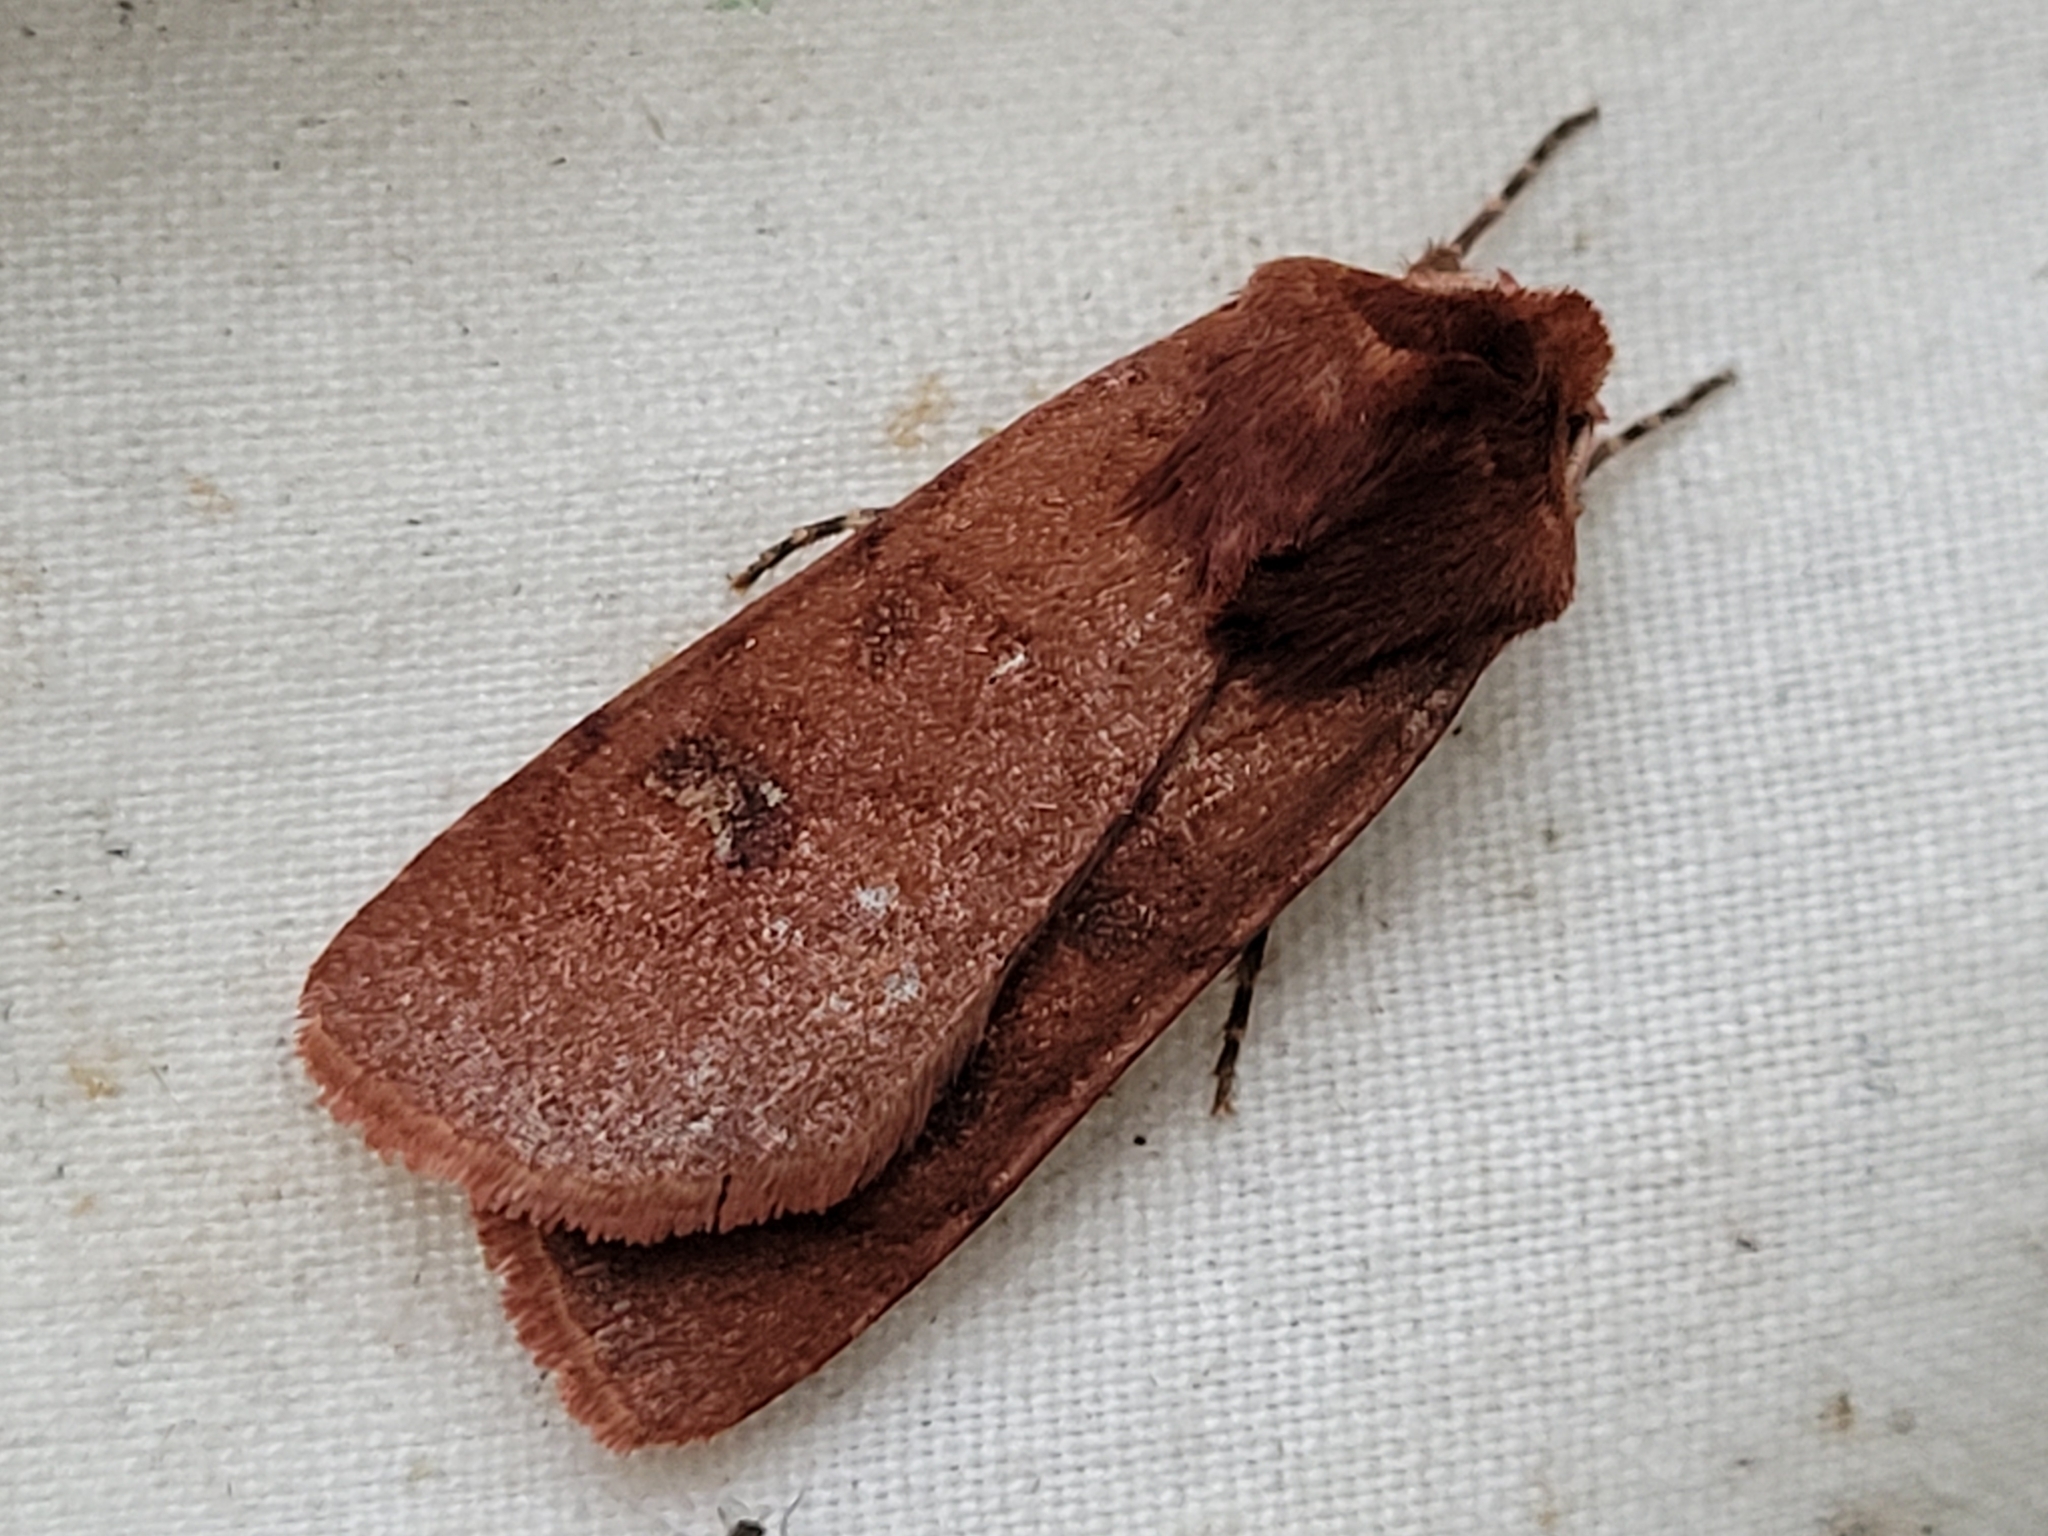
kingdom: Animalia
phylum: Arthropoda
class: Insecta
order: Lepidoptera
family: Noctuidae
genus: Euxoa
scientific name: Euxoa mimallonis
